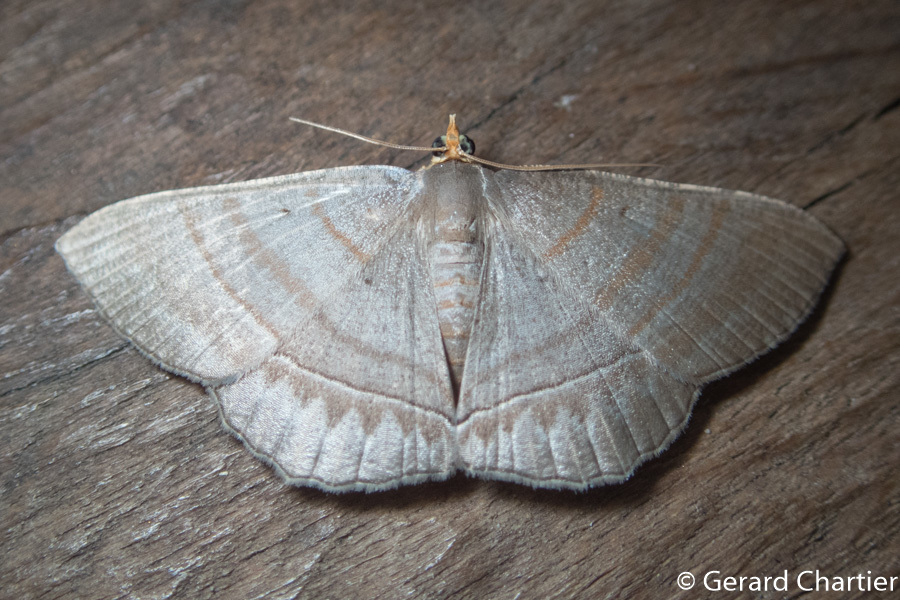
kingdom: Animalia
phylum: Arthropoda
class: Insecta
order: Lepidoptera
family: Geometridae
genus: Bulonga
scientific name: Bulonga schistacearia
